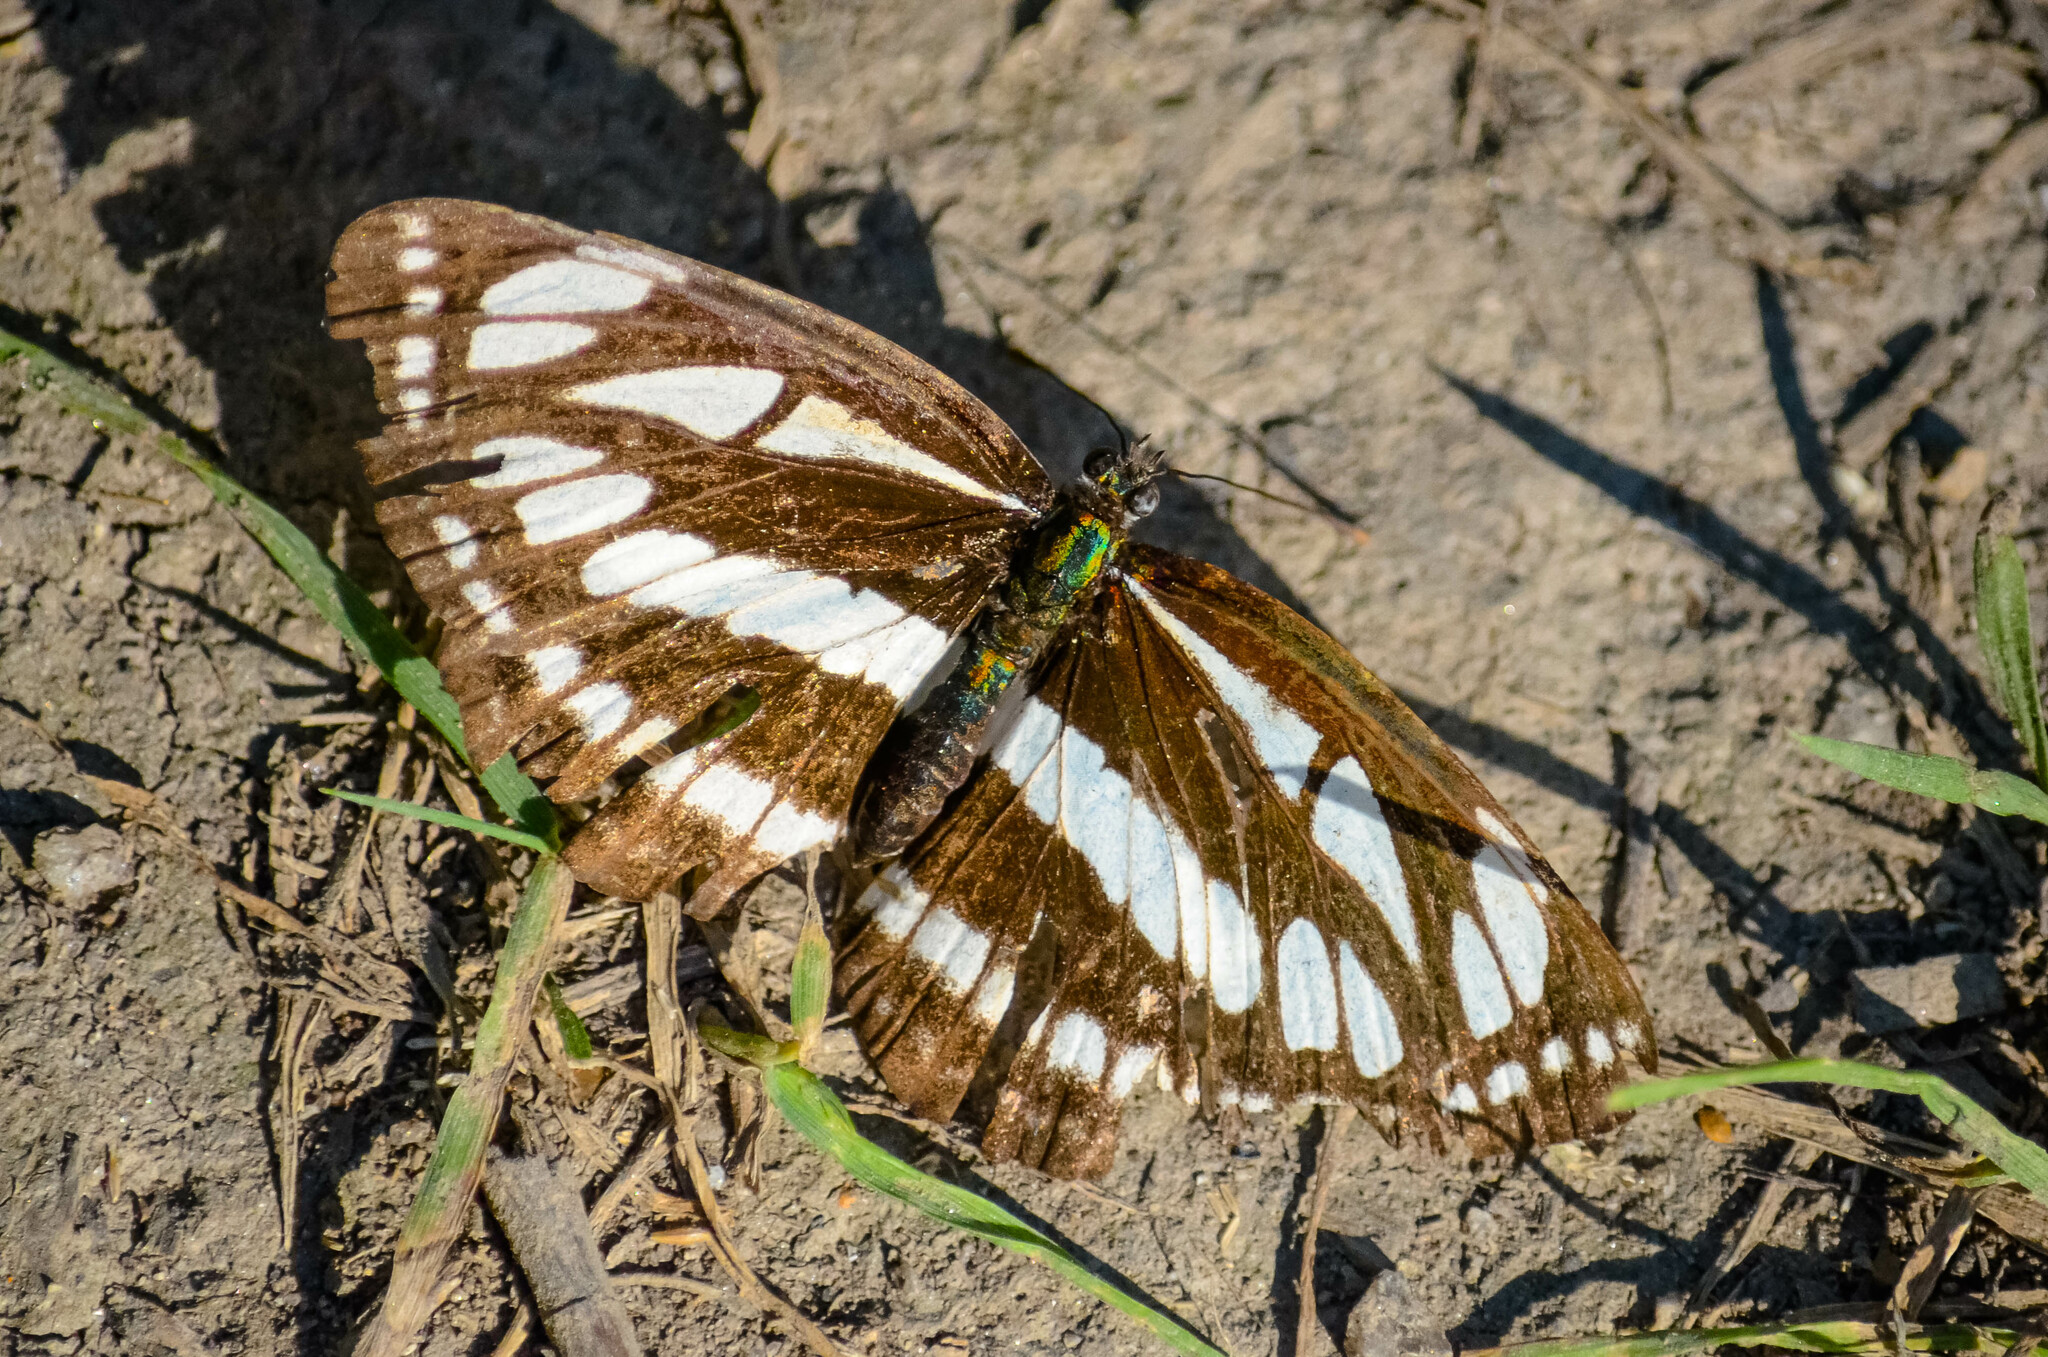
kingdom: Animalia
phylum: Arthropoda
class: Insecta
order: Lepidoptera
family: Nymphalidae
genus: Neptis
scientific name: Neptis sappho
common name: Common glider
